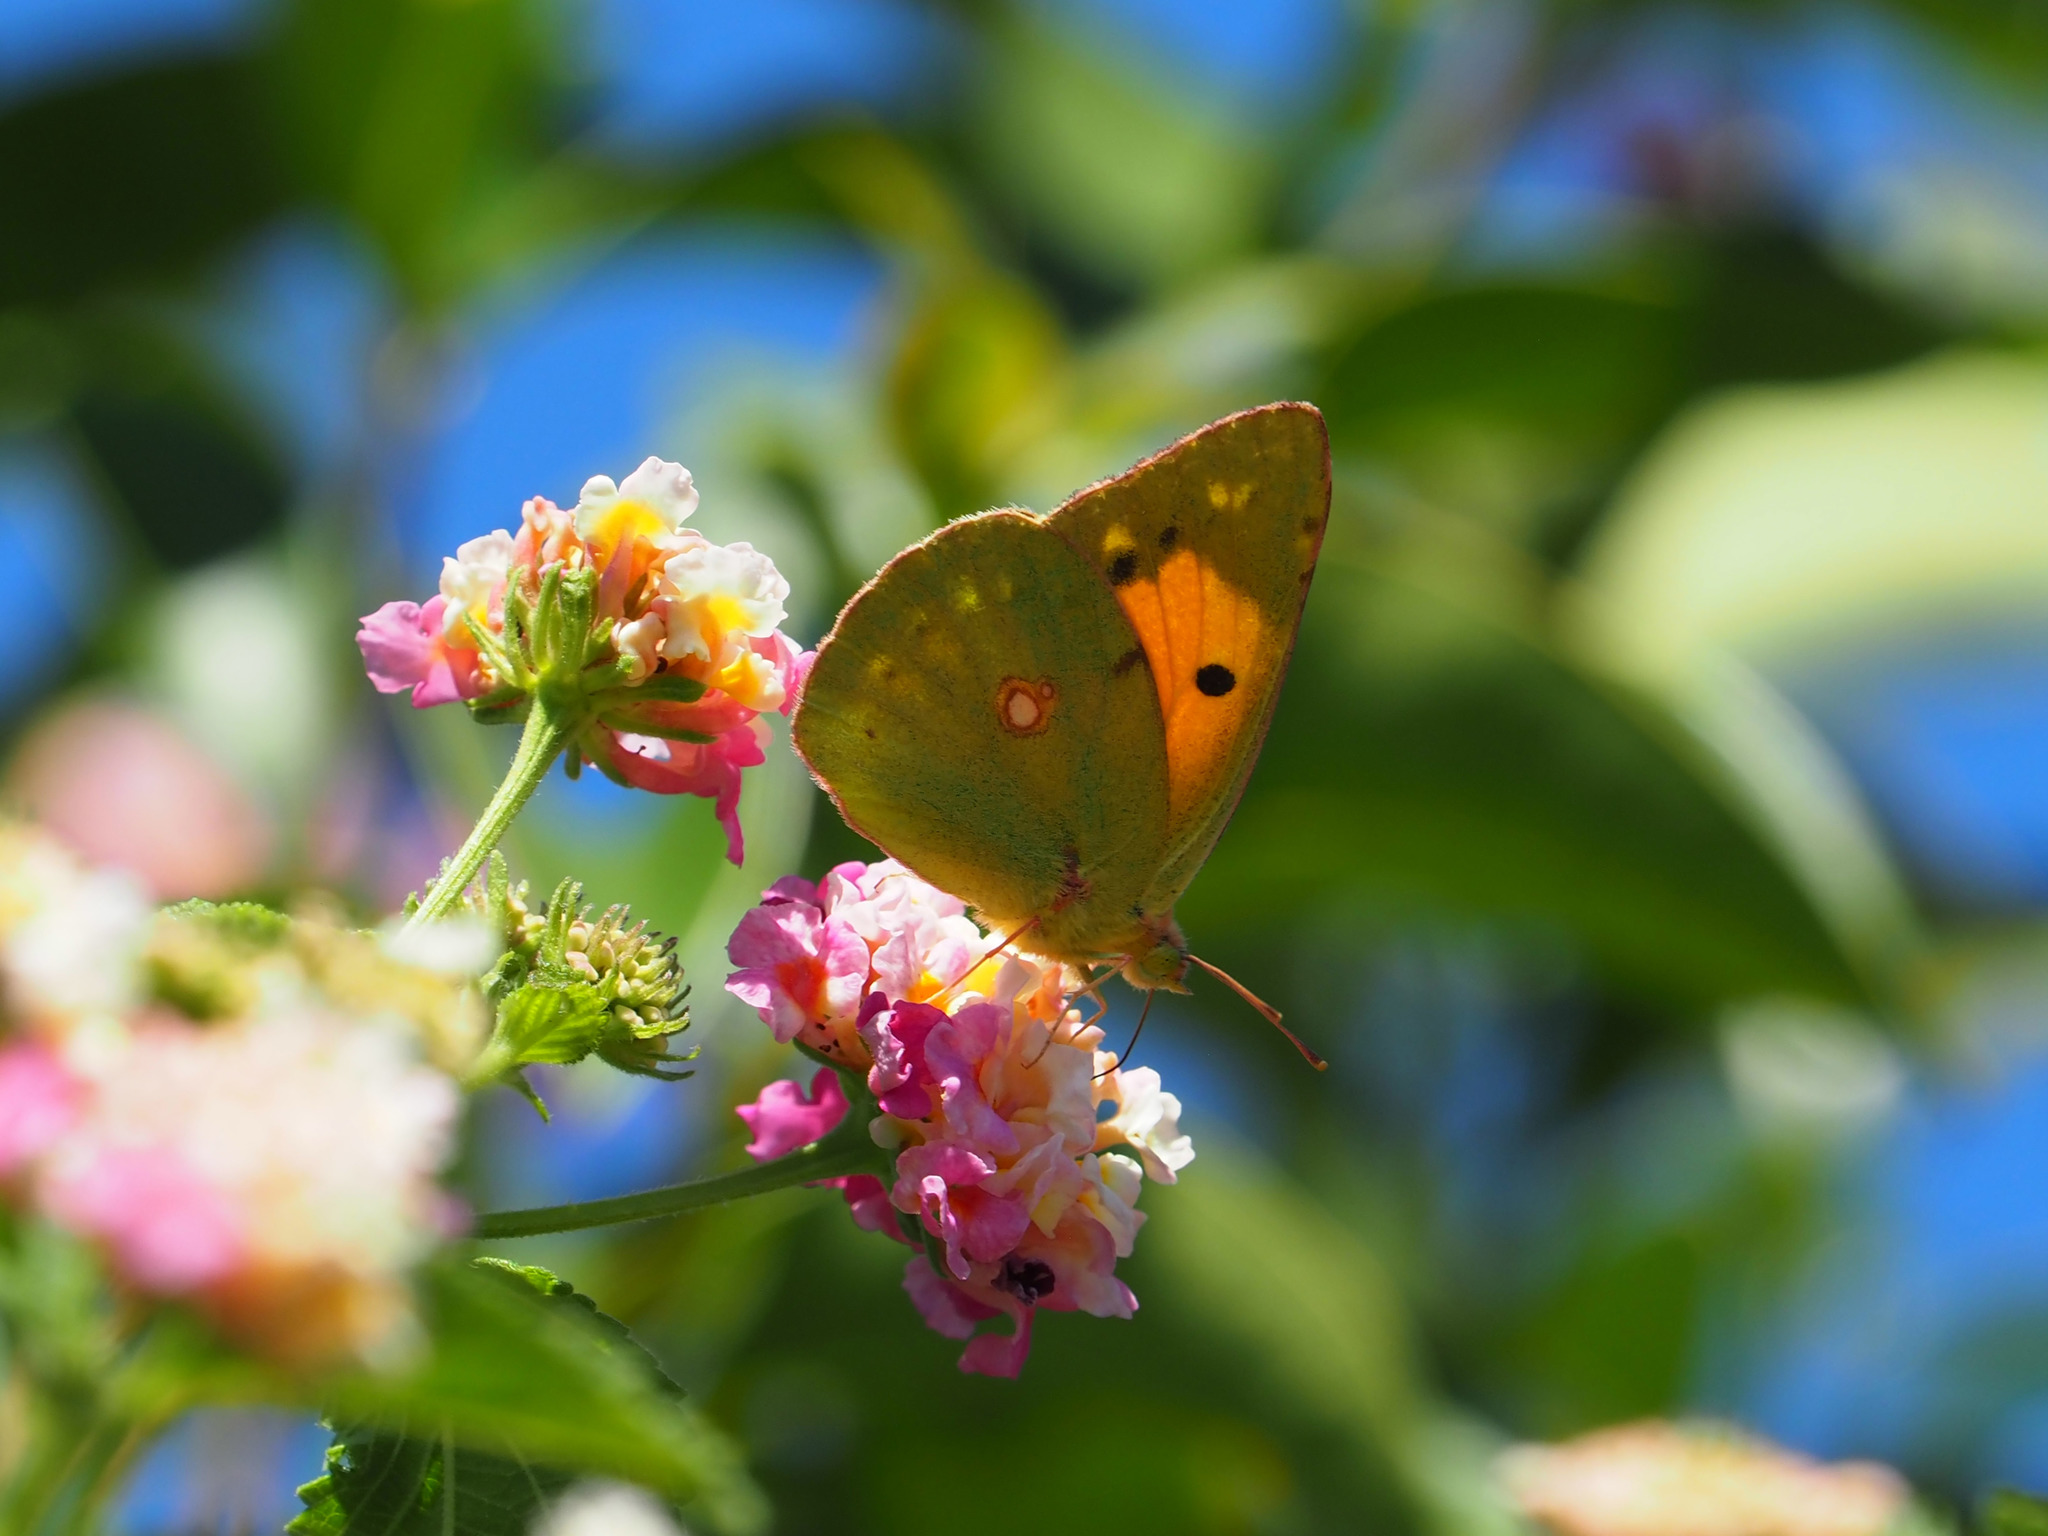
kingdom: Animalia
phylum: Arthropoda
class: Insecta
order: Lepidoptera
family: Pieridae
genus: Colias
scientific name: Colias croceus
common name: Clouded yellow
